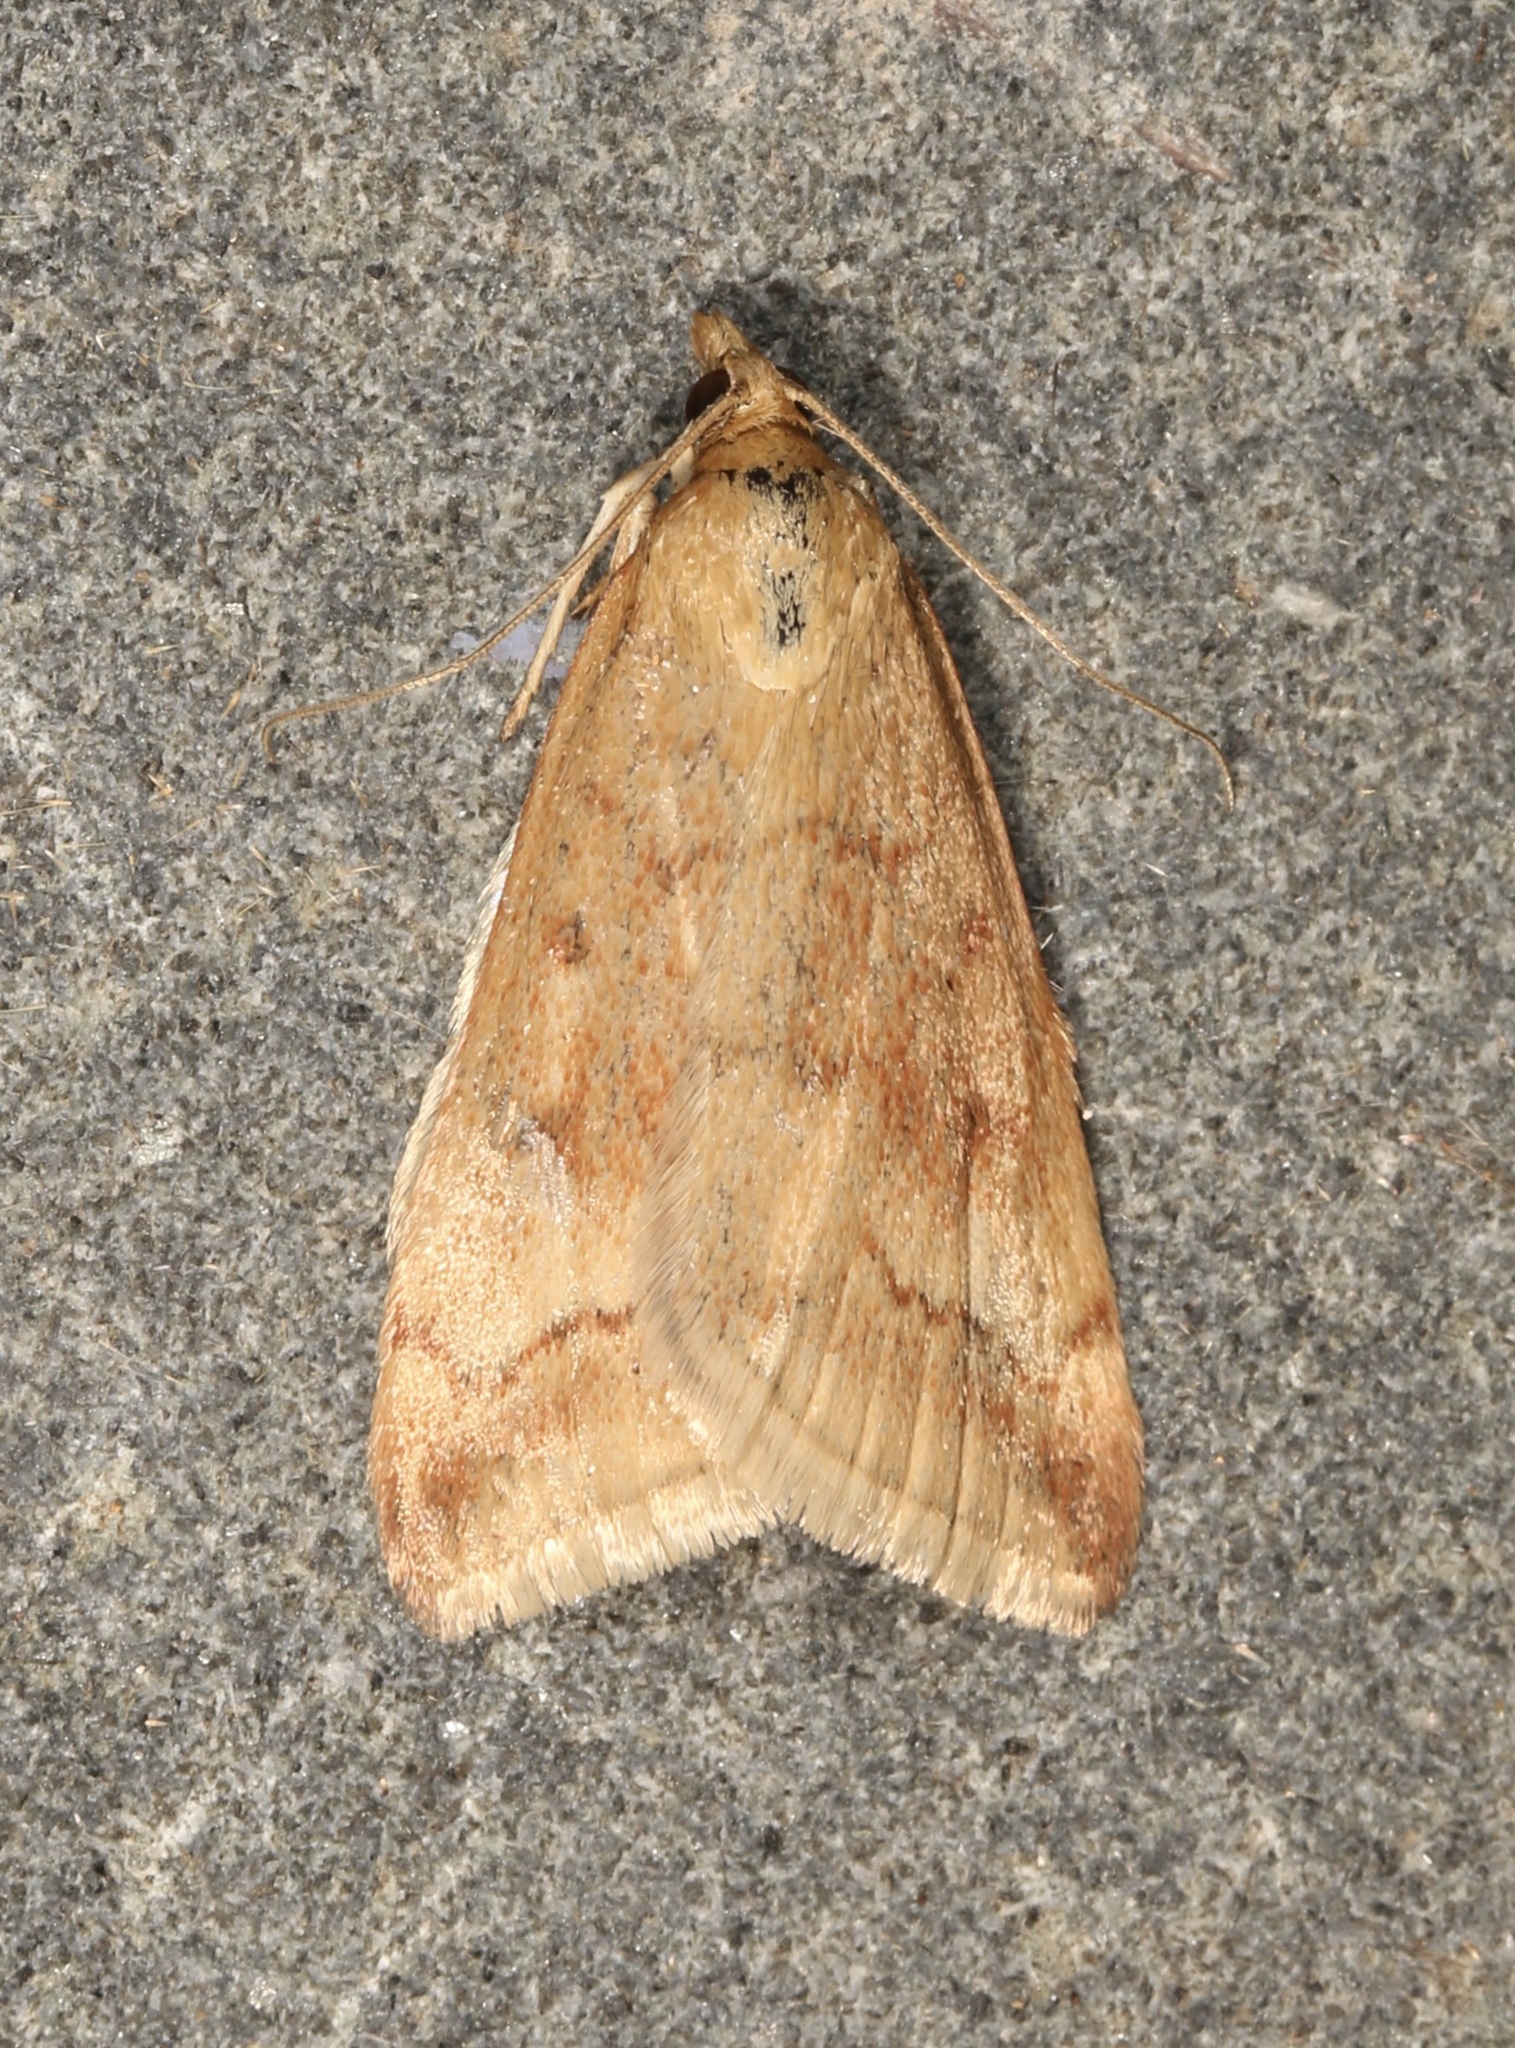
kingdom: Animalia
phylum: Arthropoda
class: Insecta
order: Lepidoptera
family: Crambidae
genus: Pyrausta
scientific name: Pyrausta fodinalis
